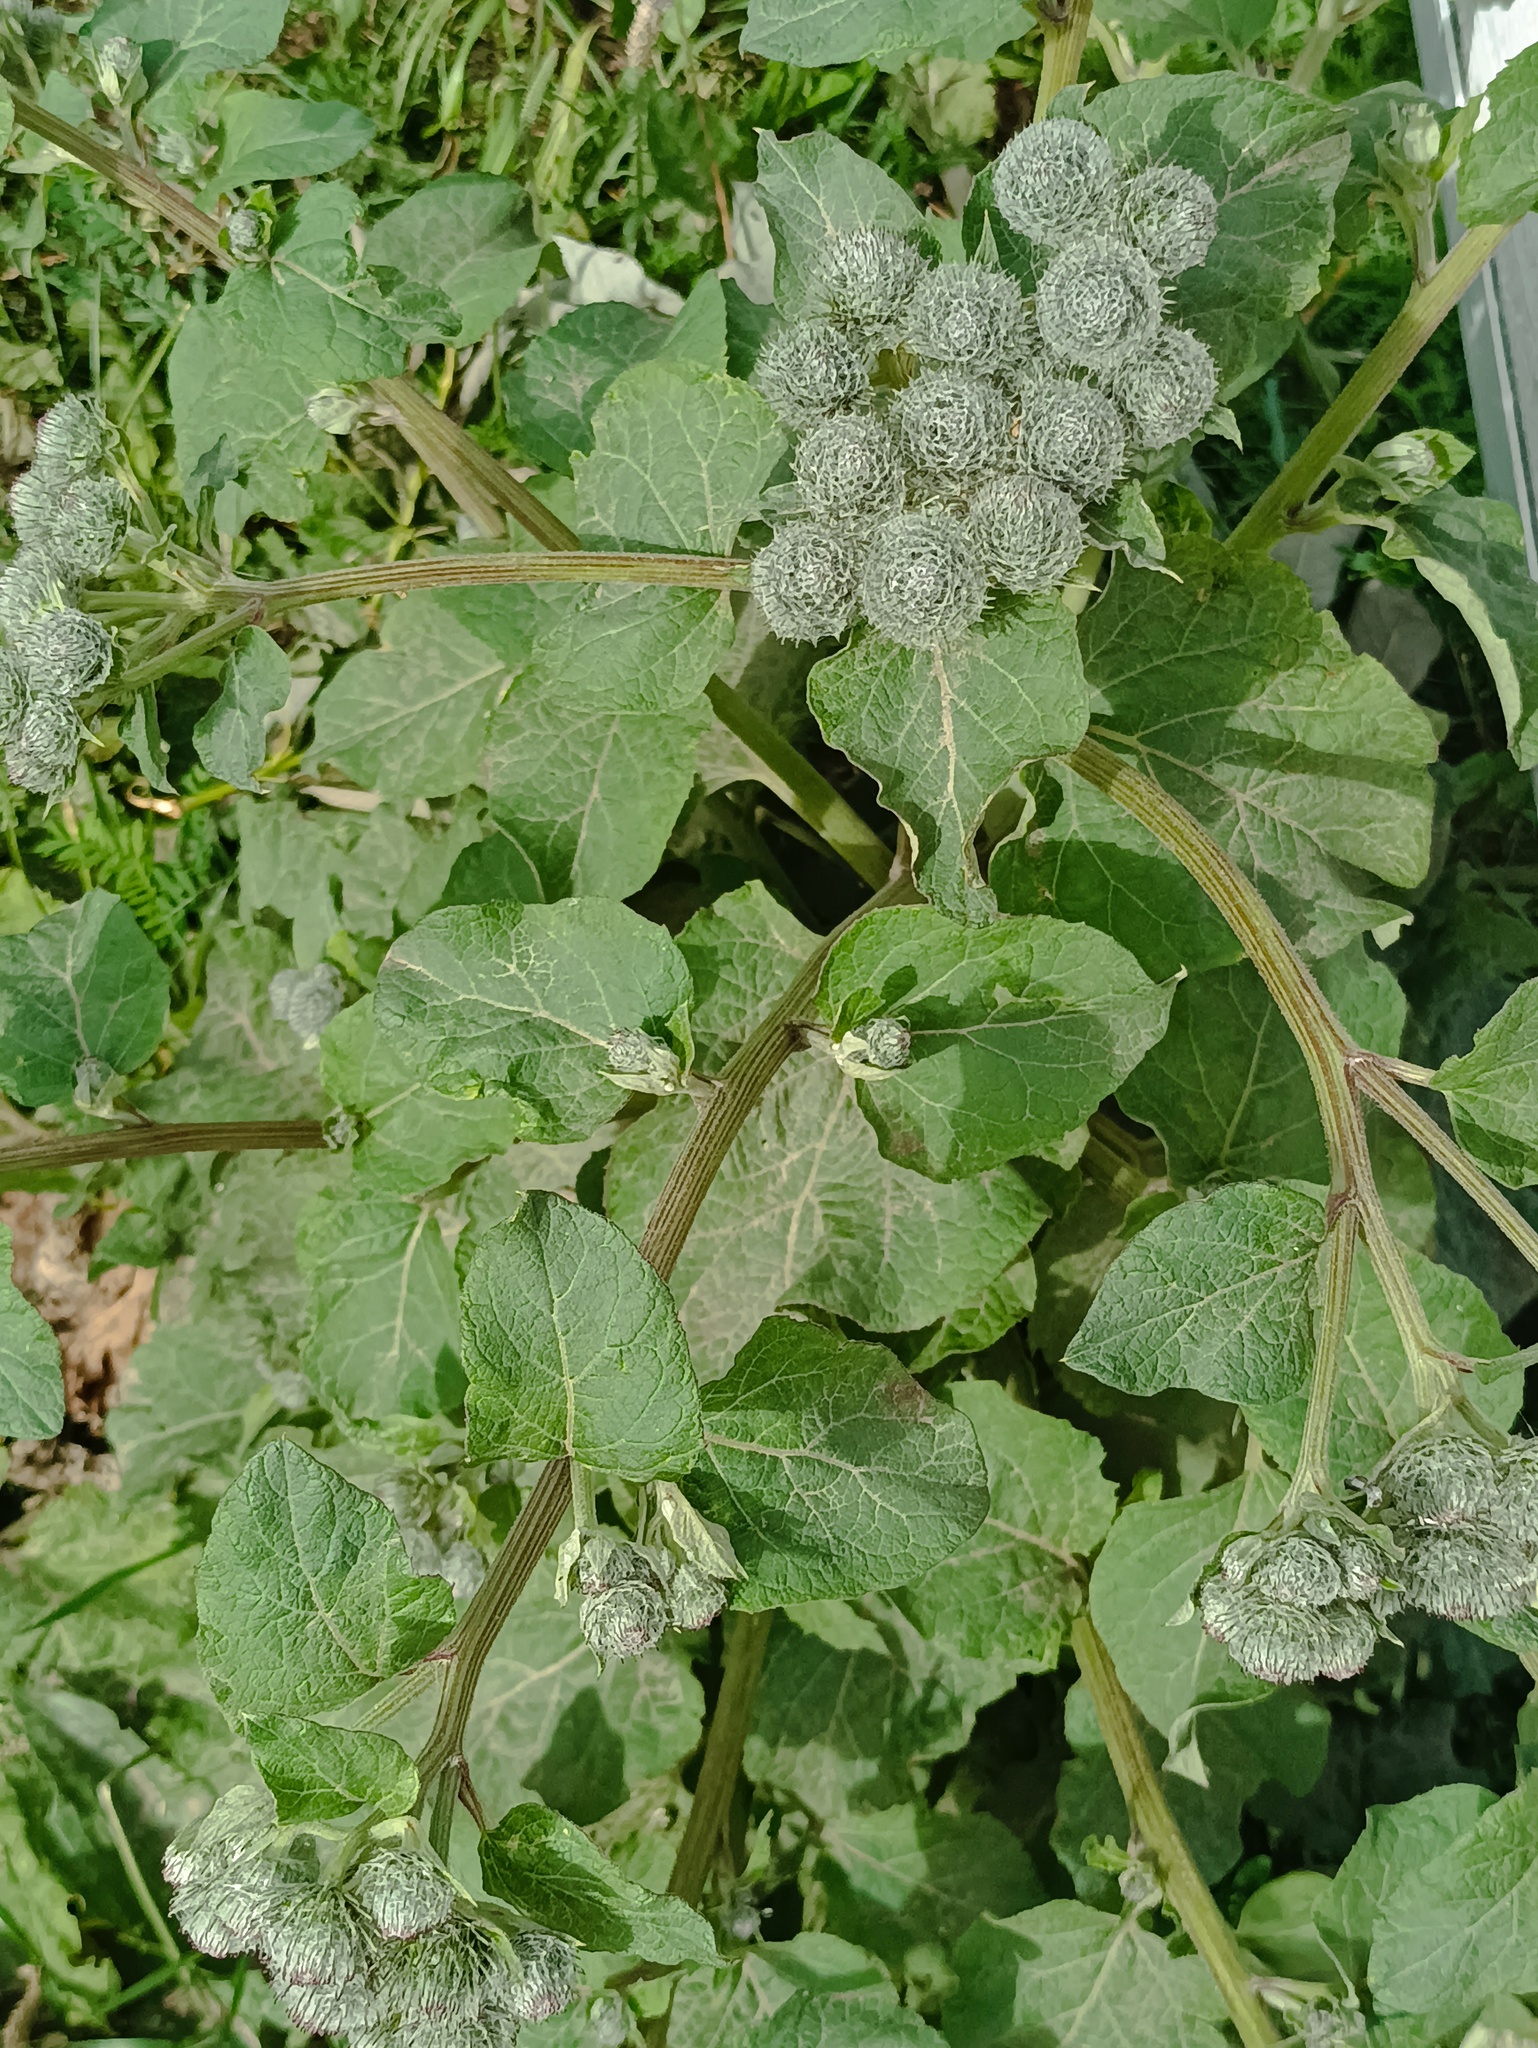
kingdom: Plantae
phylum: Tracheophyta
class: Magnoliopsida
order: Asterales
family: Asteraceae
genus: Arctium
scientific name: Arctium tomentosum
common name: Woolly burdock
